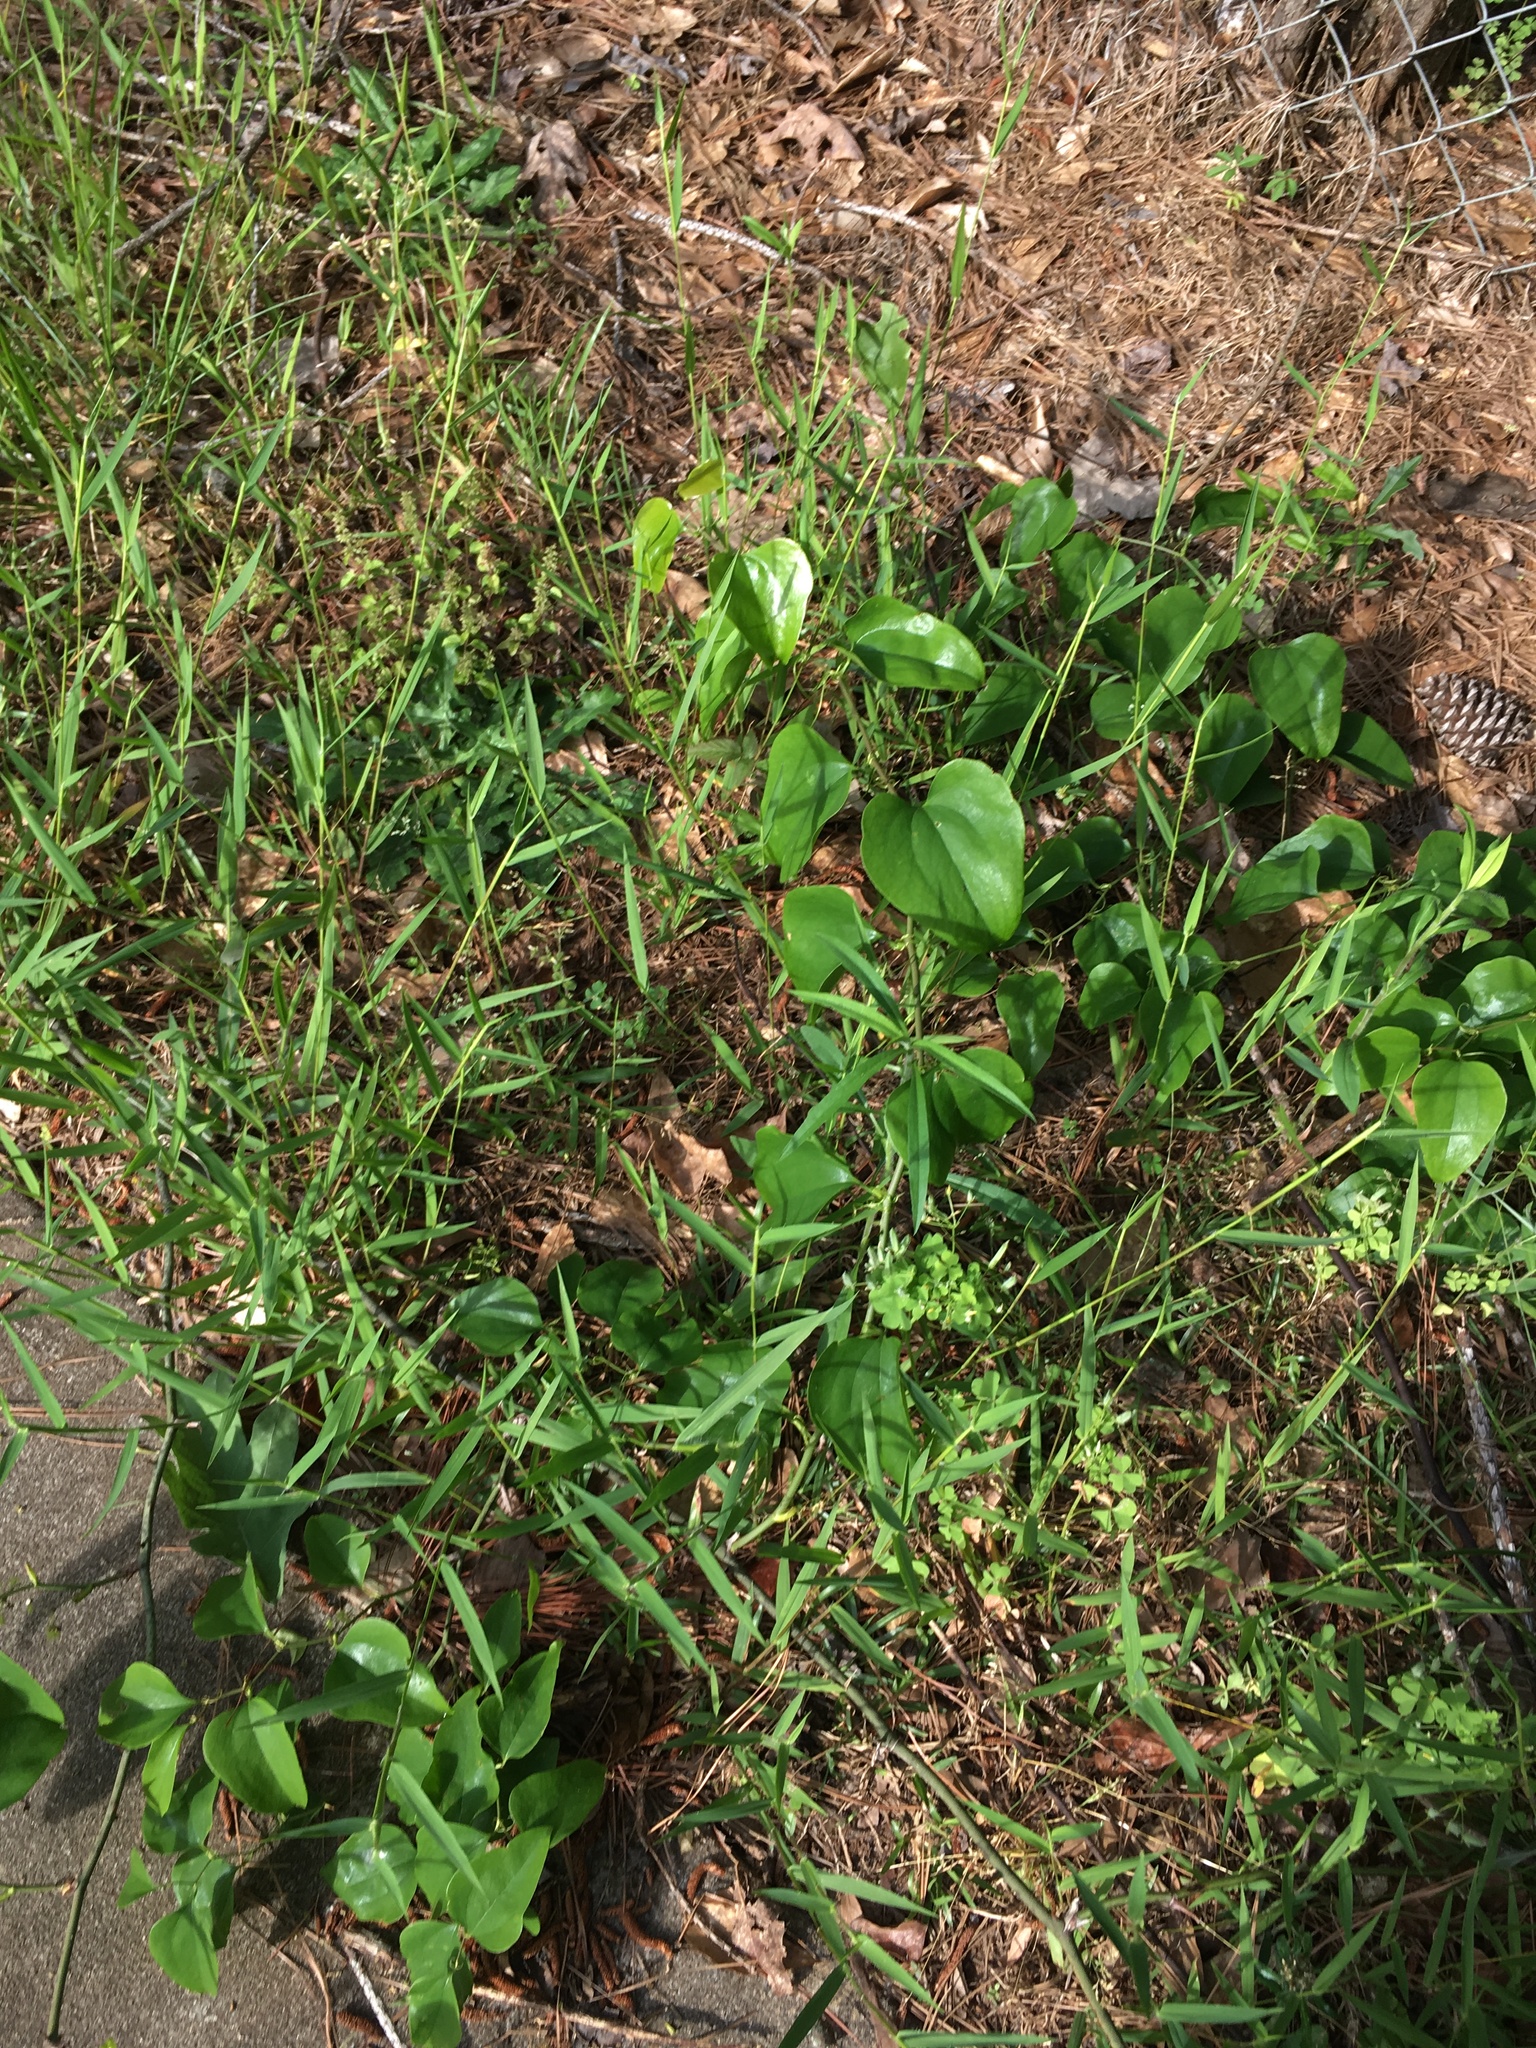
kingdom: Plantae
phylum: Tracheophyta
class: Liliopsida
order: Liliales
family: Smilacaceae
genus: Smilax
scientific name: Smilax rotundifolia
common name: Bullbriar
